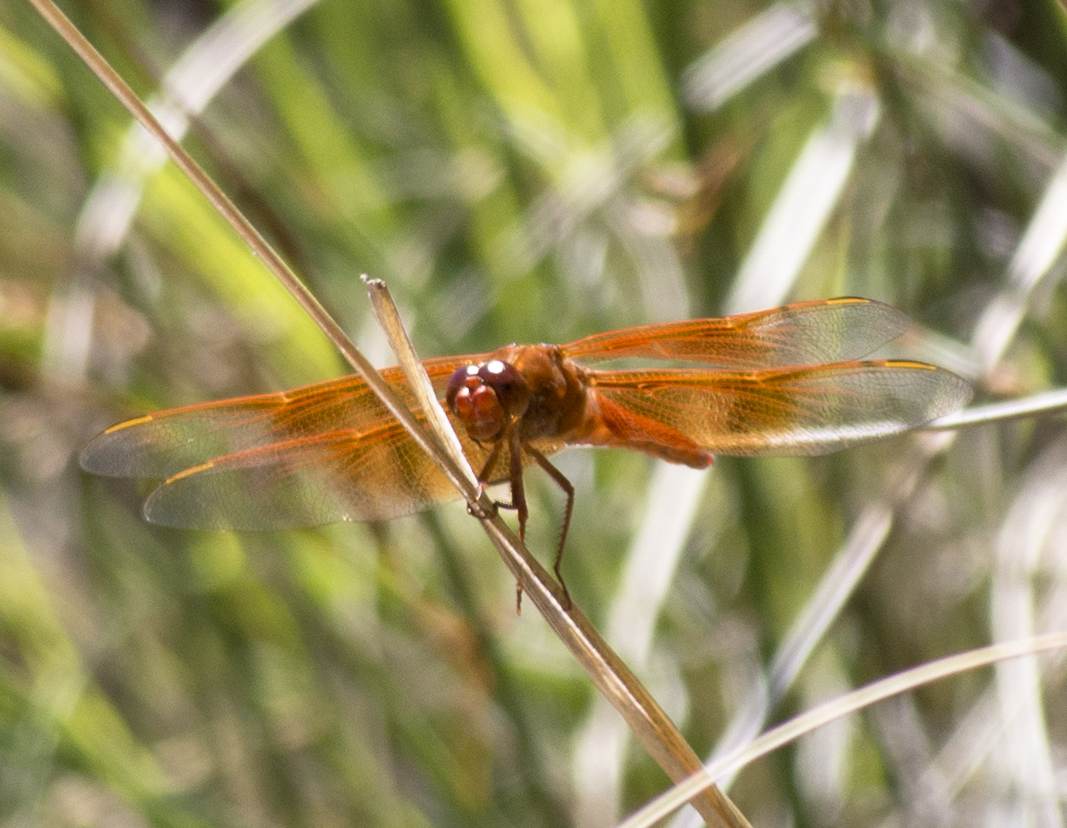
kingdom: Animalia
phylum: Arthropoda
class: Insecta
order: Odonata
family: Libellulidae
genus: Libellula
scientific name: Libellula saturata
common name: Flame skimmer
